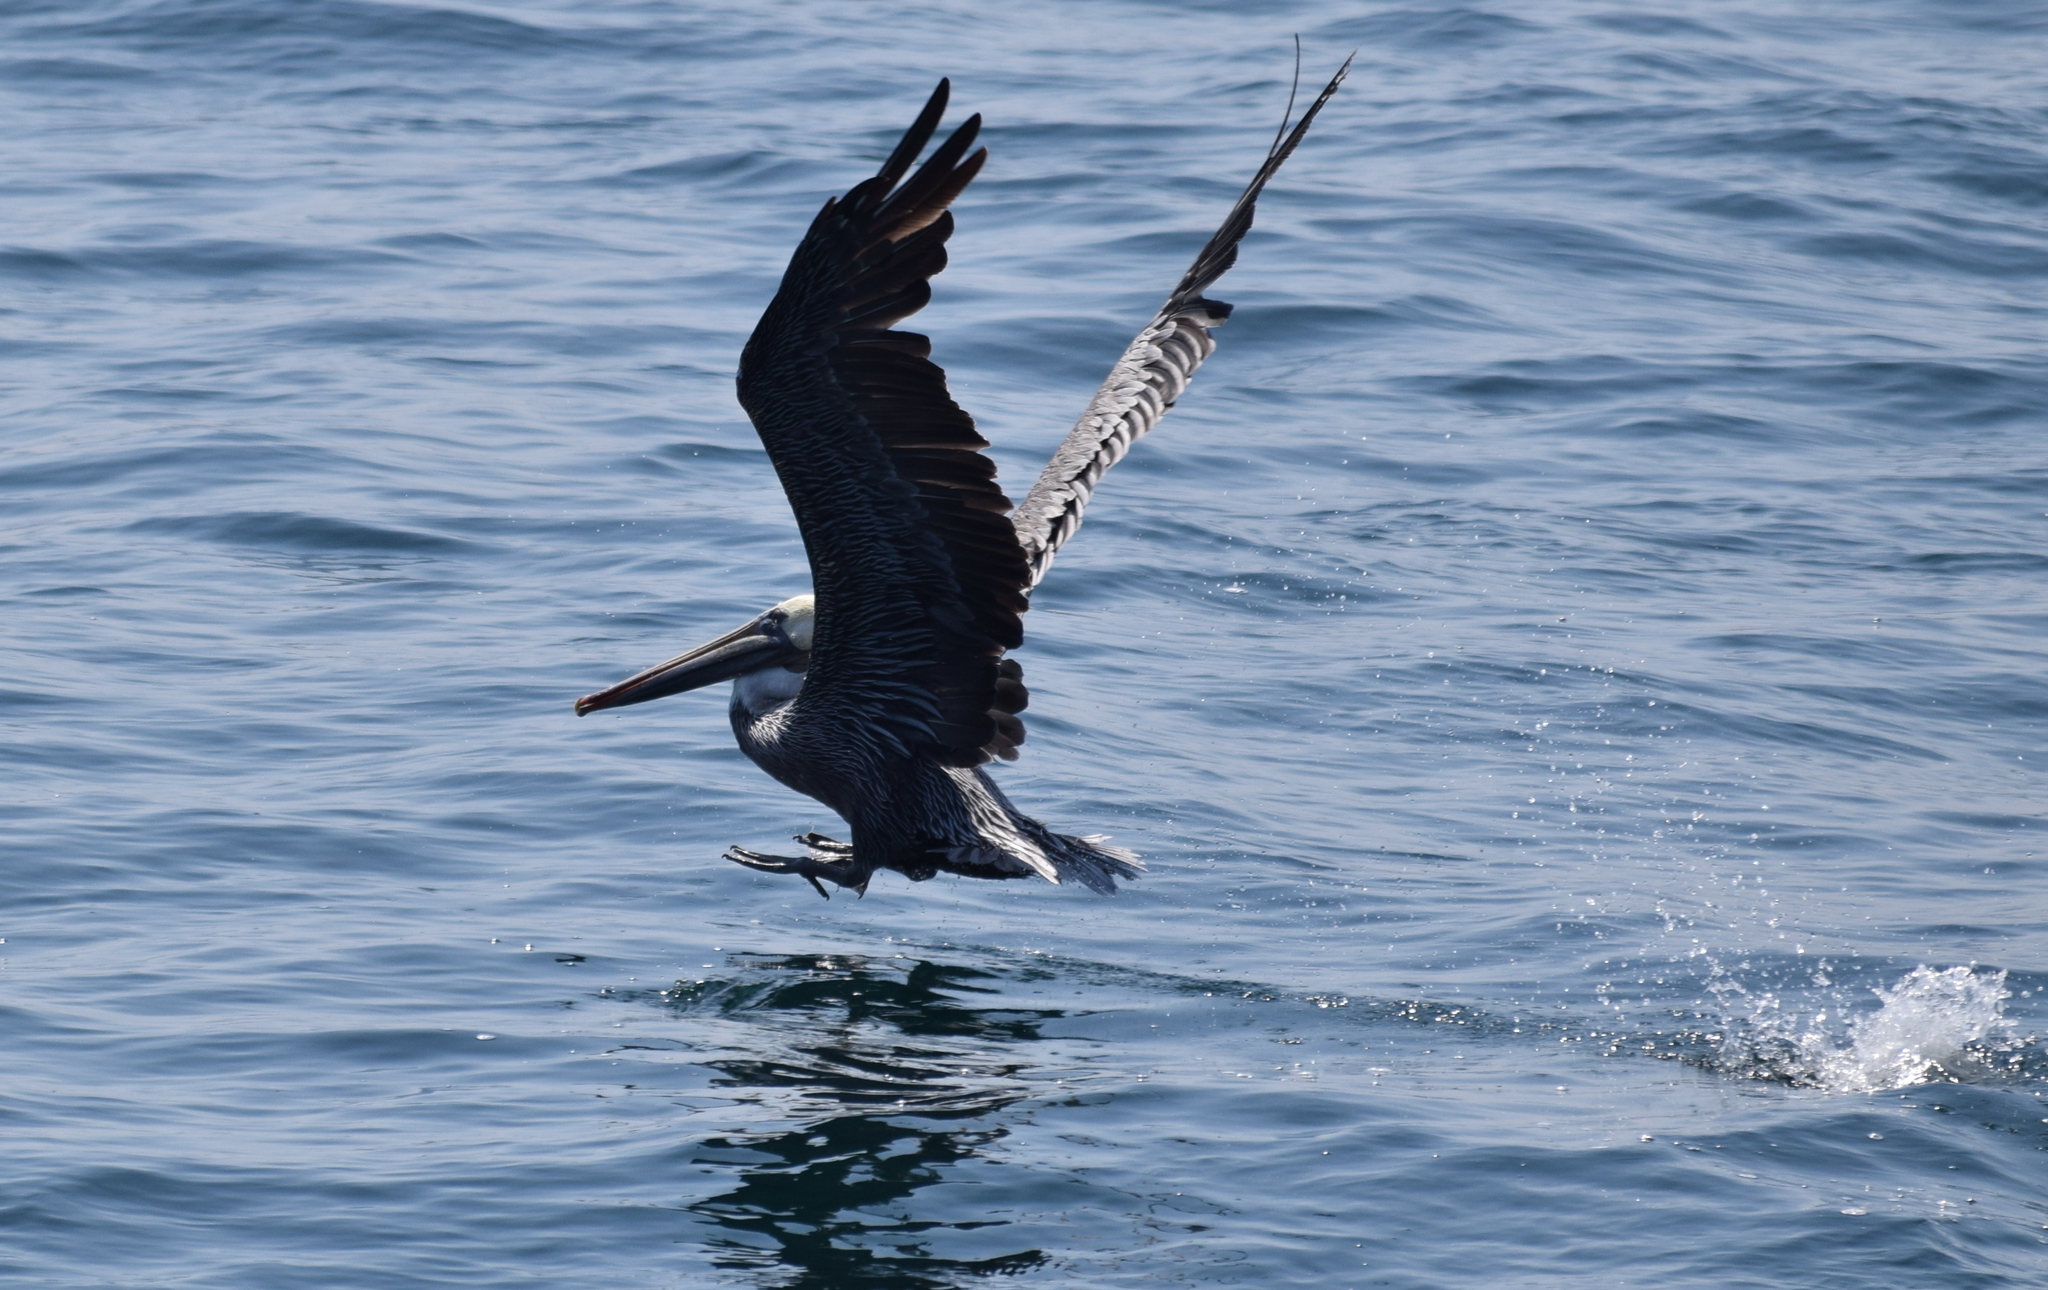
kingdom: Animalia
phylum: Chordata
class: Aves
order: Pelecaniformes
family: Pelecanidae
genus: Pelecanus
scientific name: Pelecanus occidentalis
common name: Brown pelican
